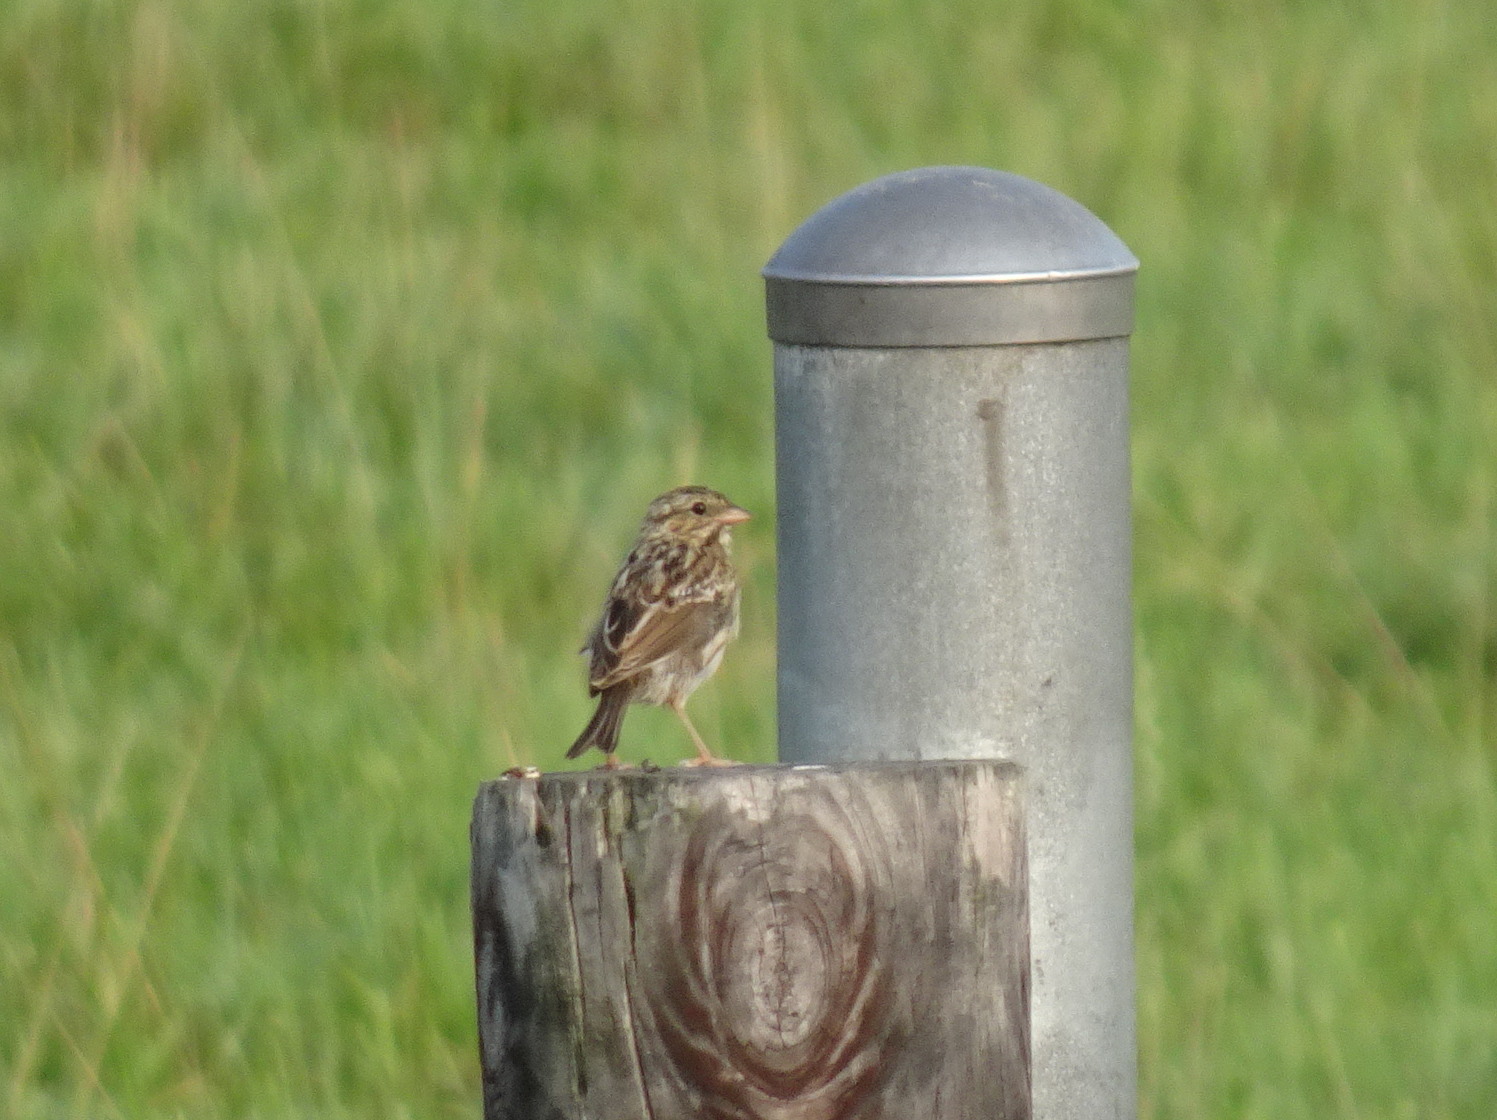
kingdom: Animalia
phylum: Chordata
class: Aves
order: Passeriformes
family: Passerellidae
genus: Passerculus
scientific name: Passerculus sandwichensis
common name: Savannah sparrow
